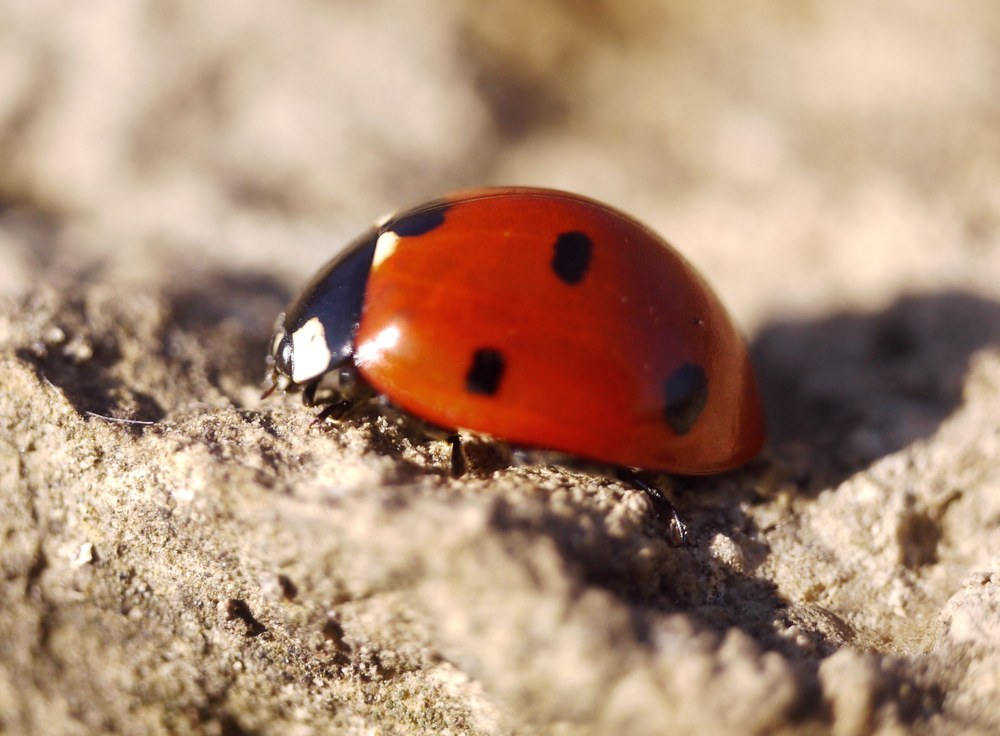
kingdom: Animalia
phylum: Arthropoda
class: Insecta
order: Coleoptera
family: Coccinellidae
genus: Coccinella
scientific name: Coccinella septempunctata
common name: Sevenspotted lady beetle
